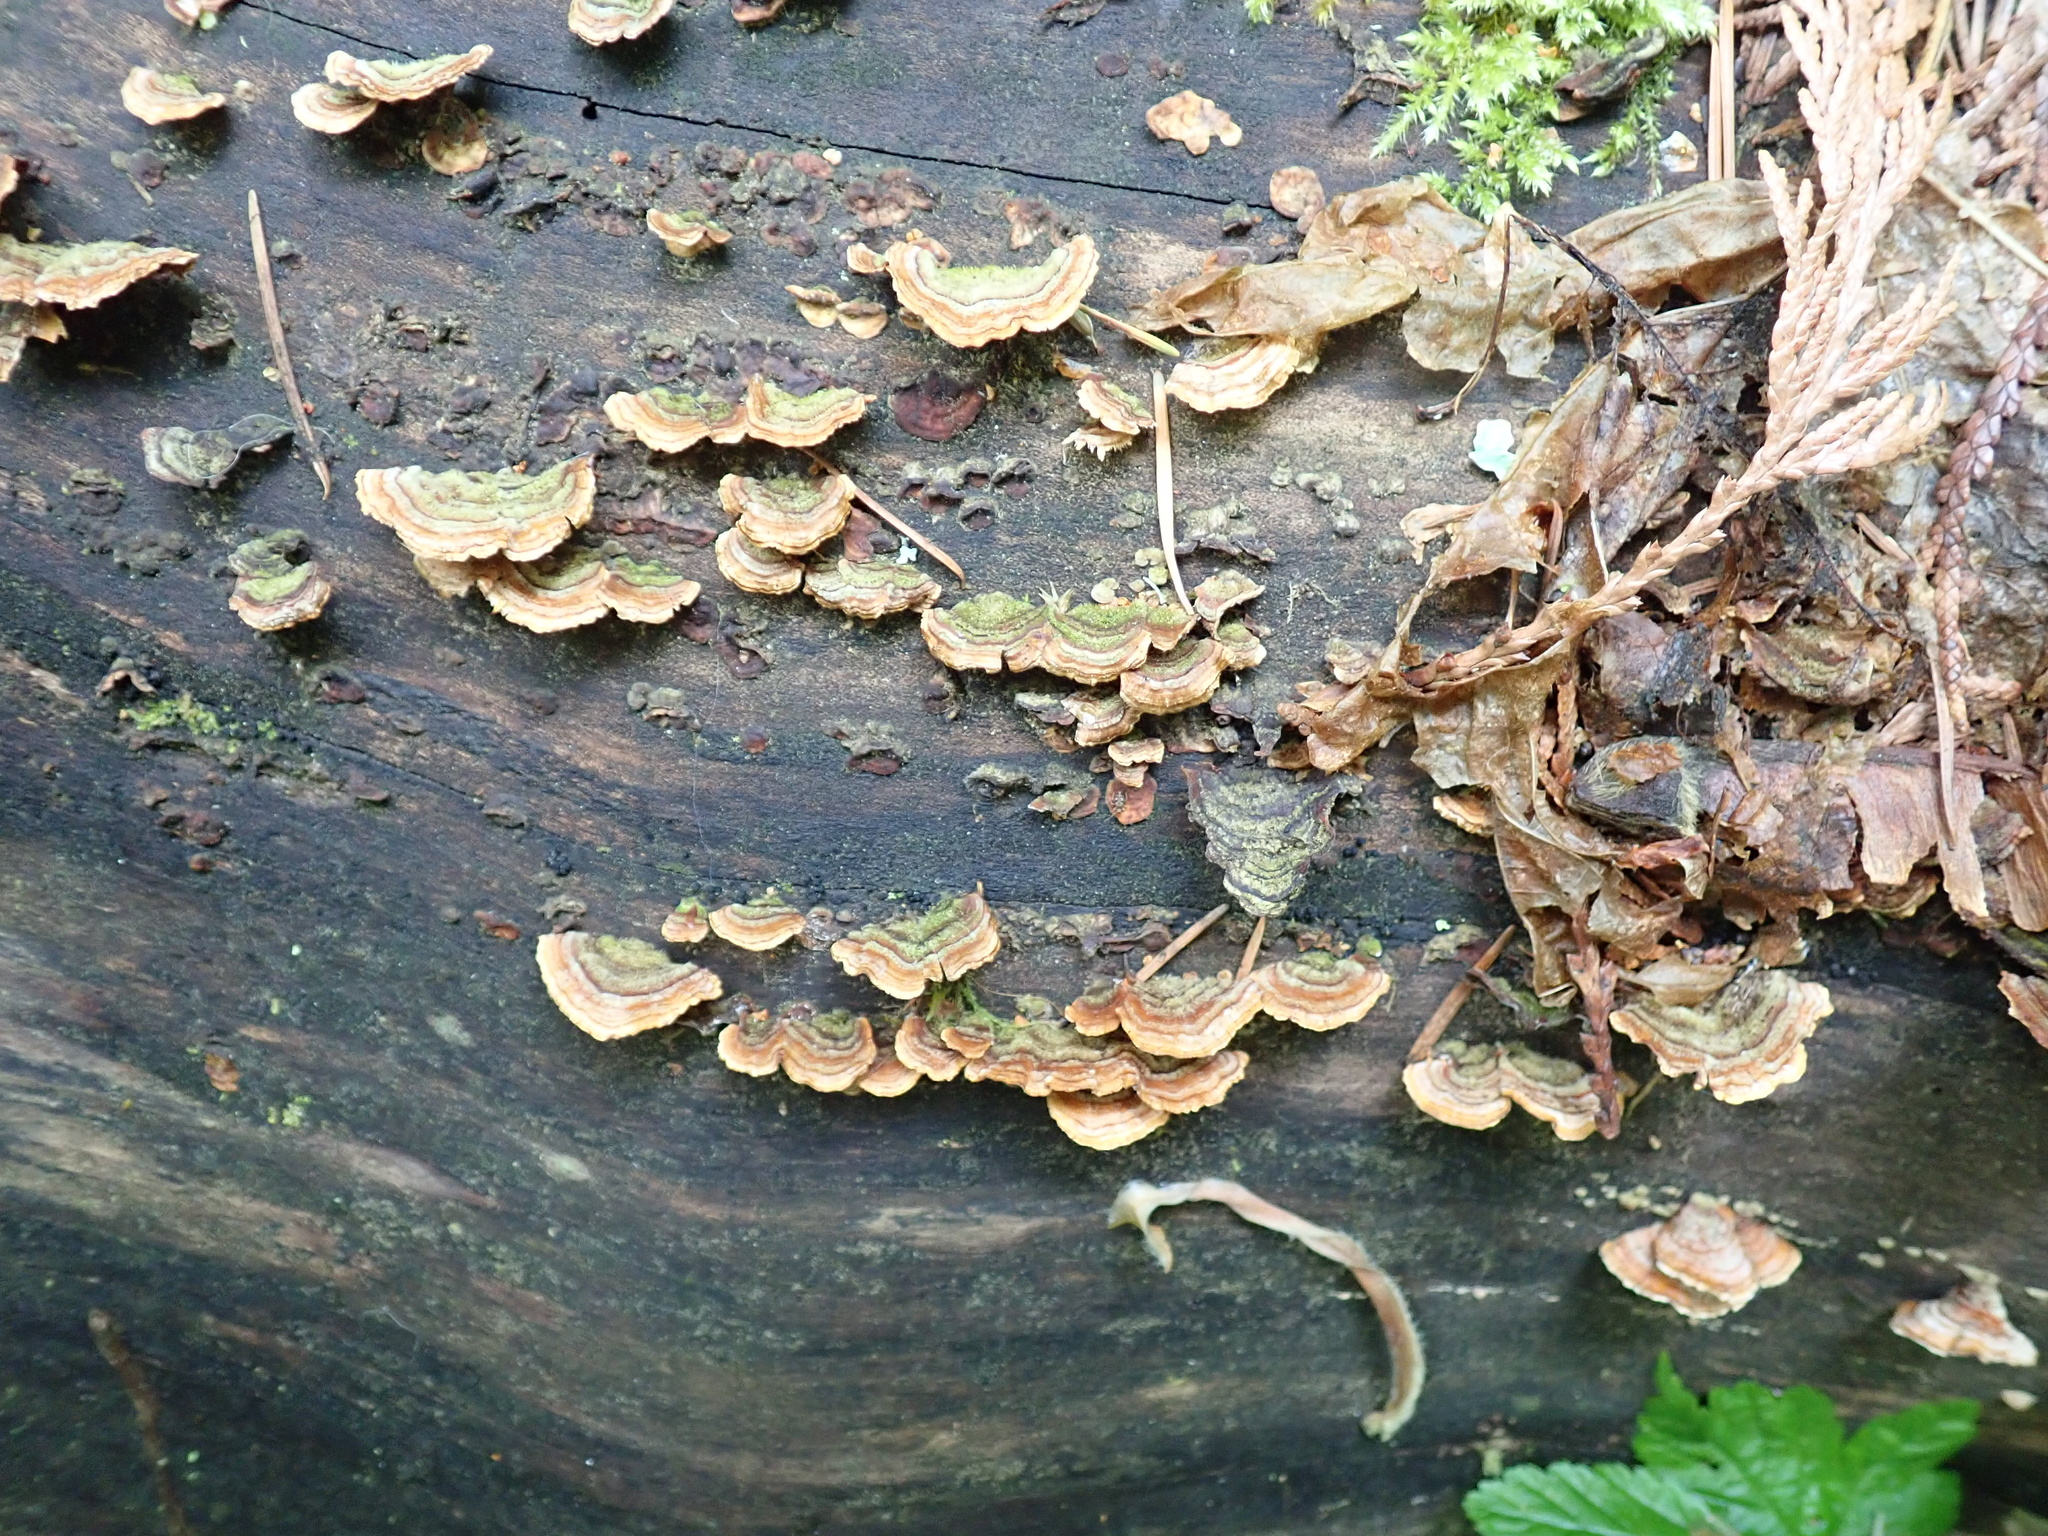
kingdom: Fungi
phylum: Basidiomycota
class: Agaricomycetes
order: Polyporales
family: Polyporaceae
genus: Trametes
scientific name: Trametes versicolor
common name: Turkeytail
